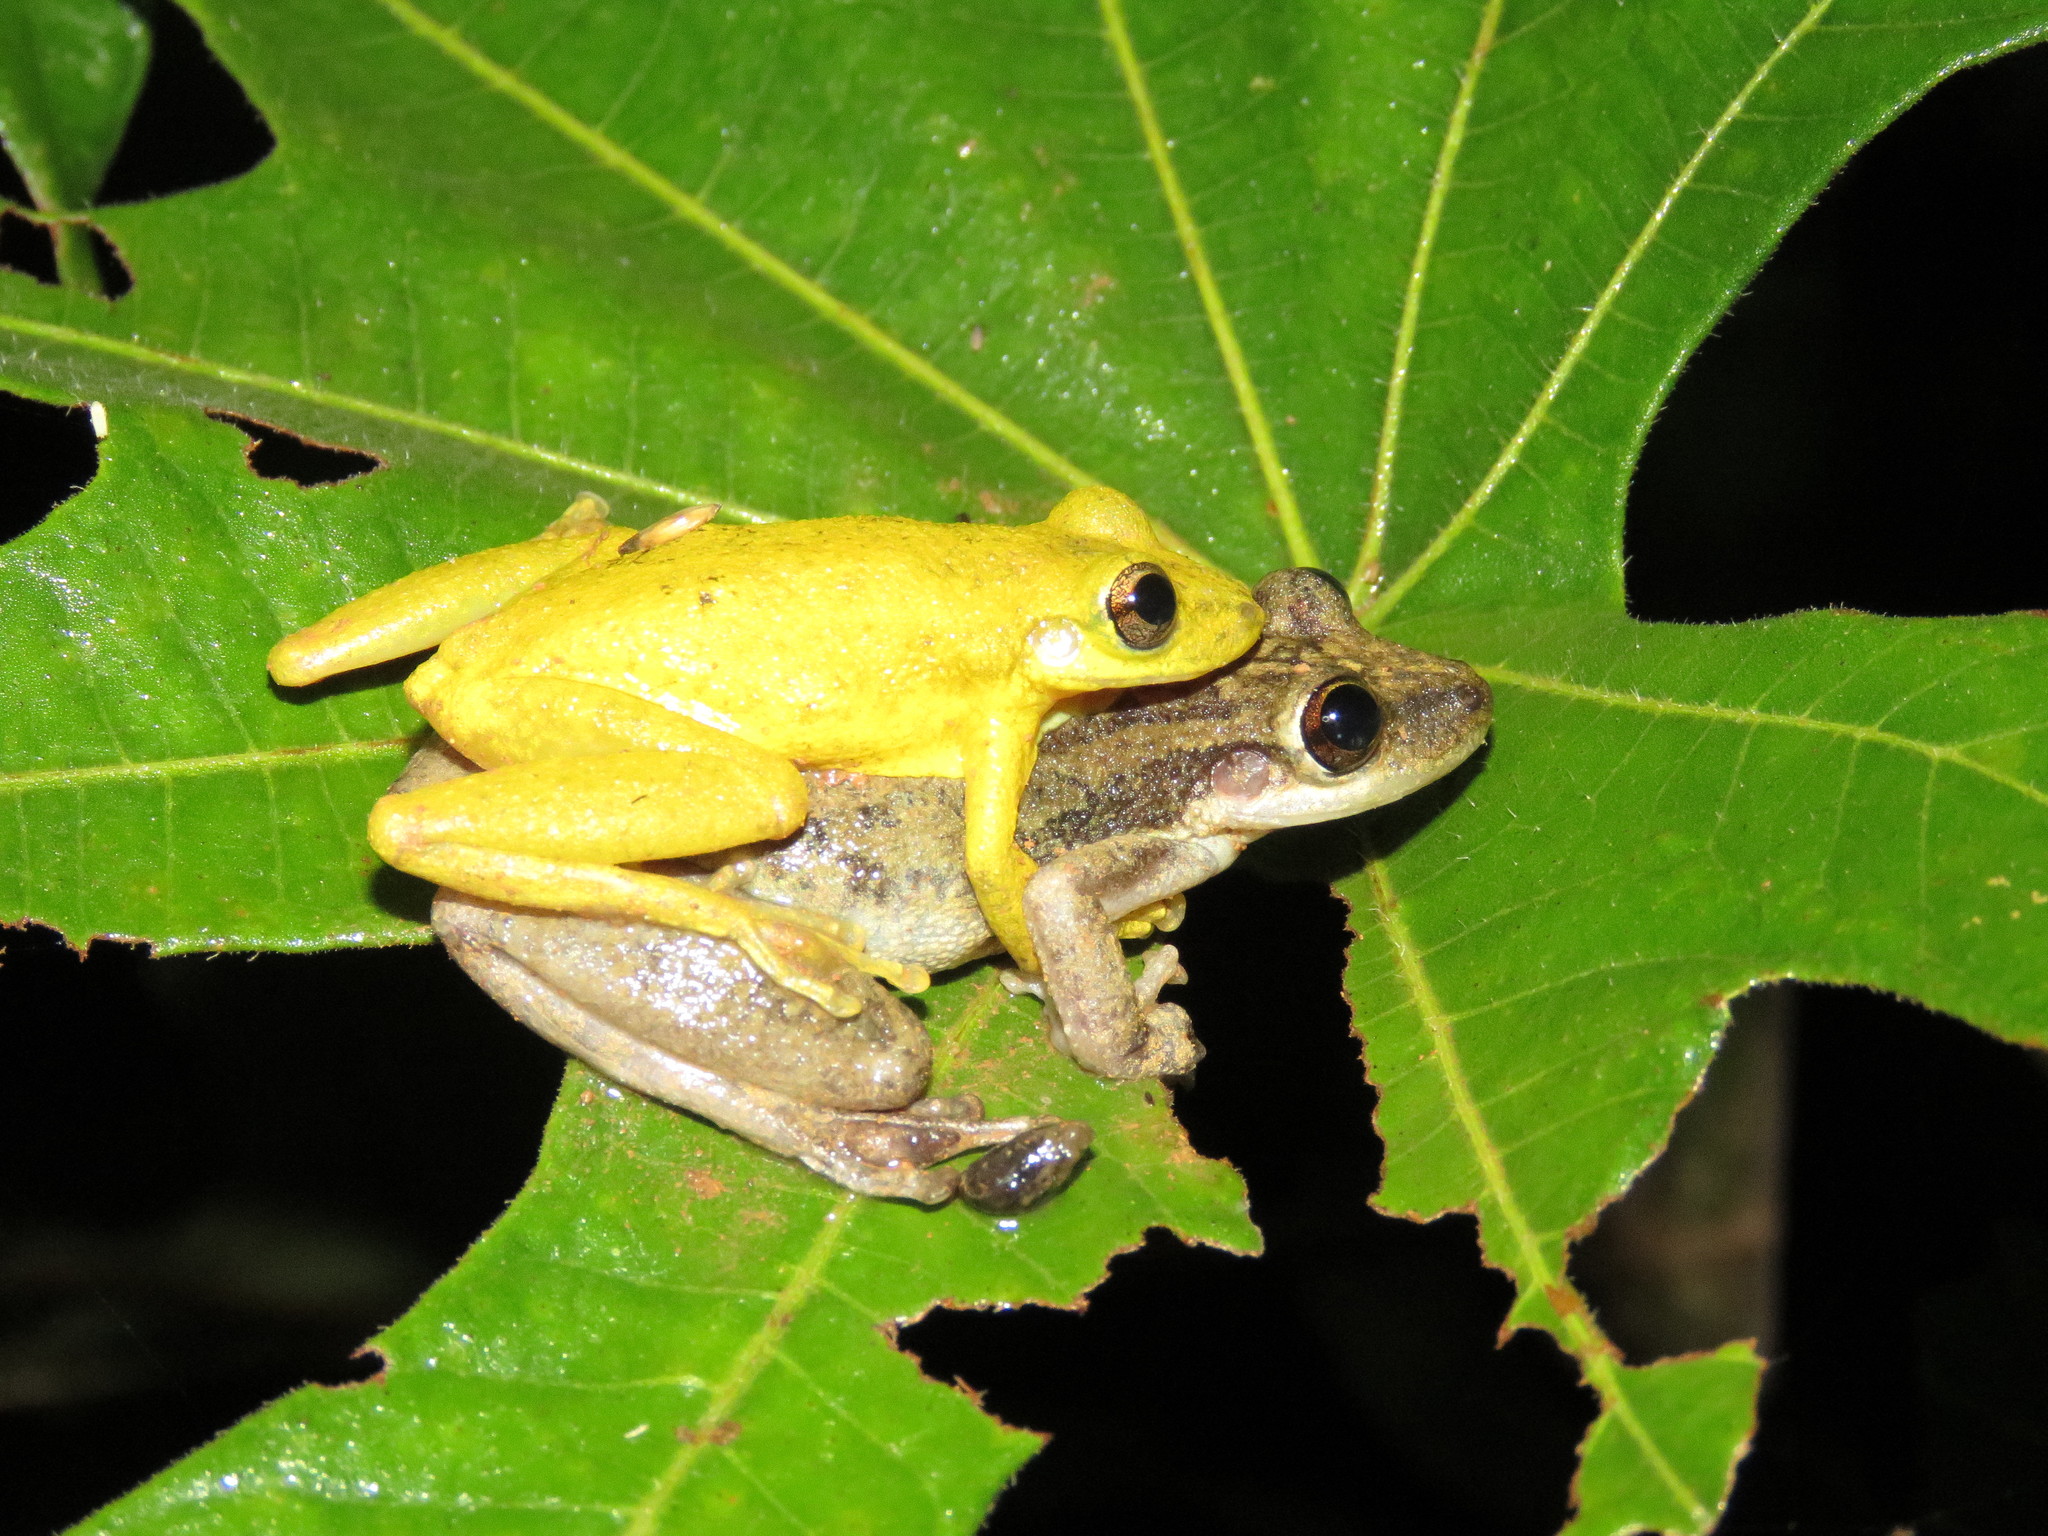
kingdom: Animalia
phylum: Chordata
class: Amphibia
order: Anura
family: Hylidae
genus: Scinax
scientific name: Scinax ruber
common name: Red snouted treefrog
